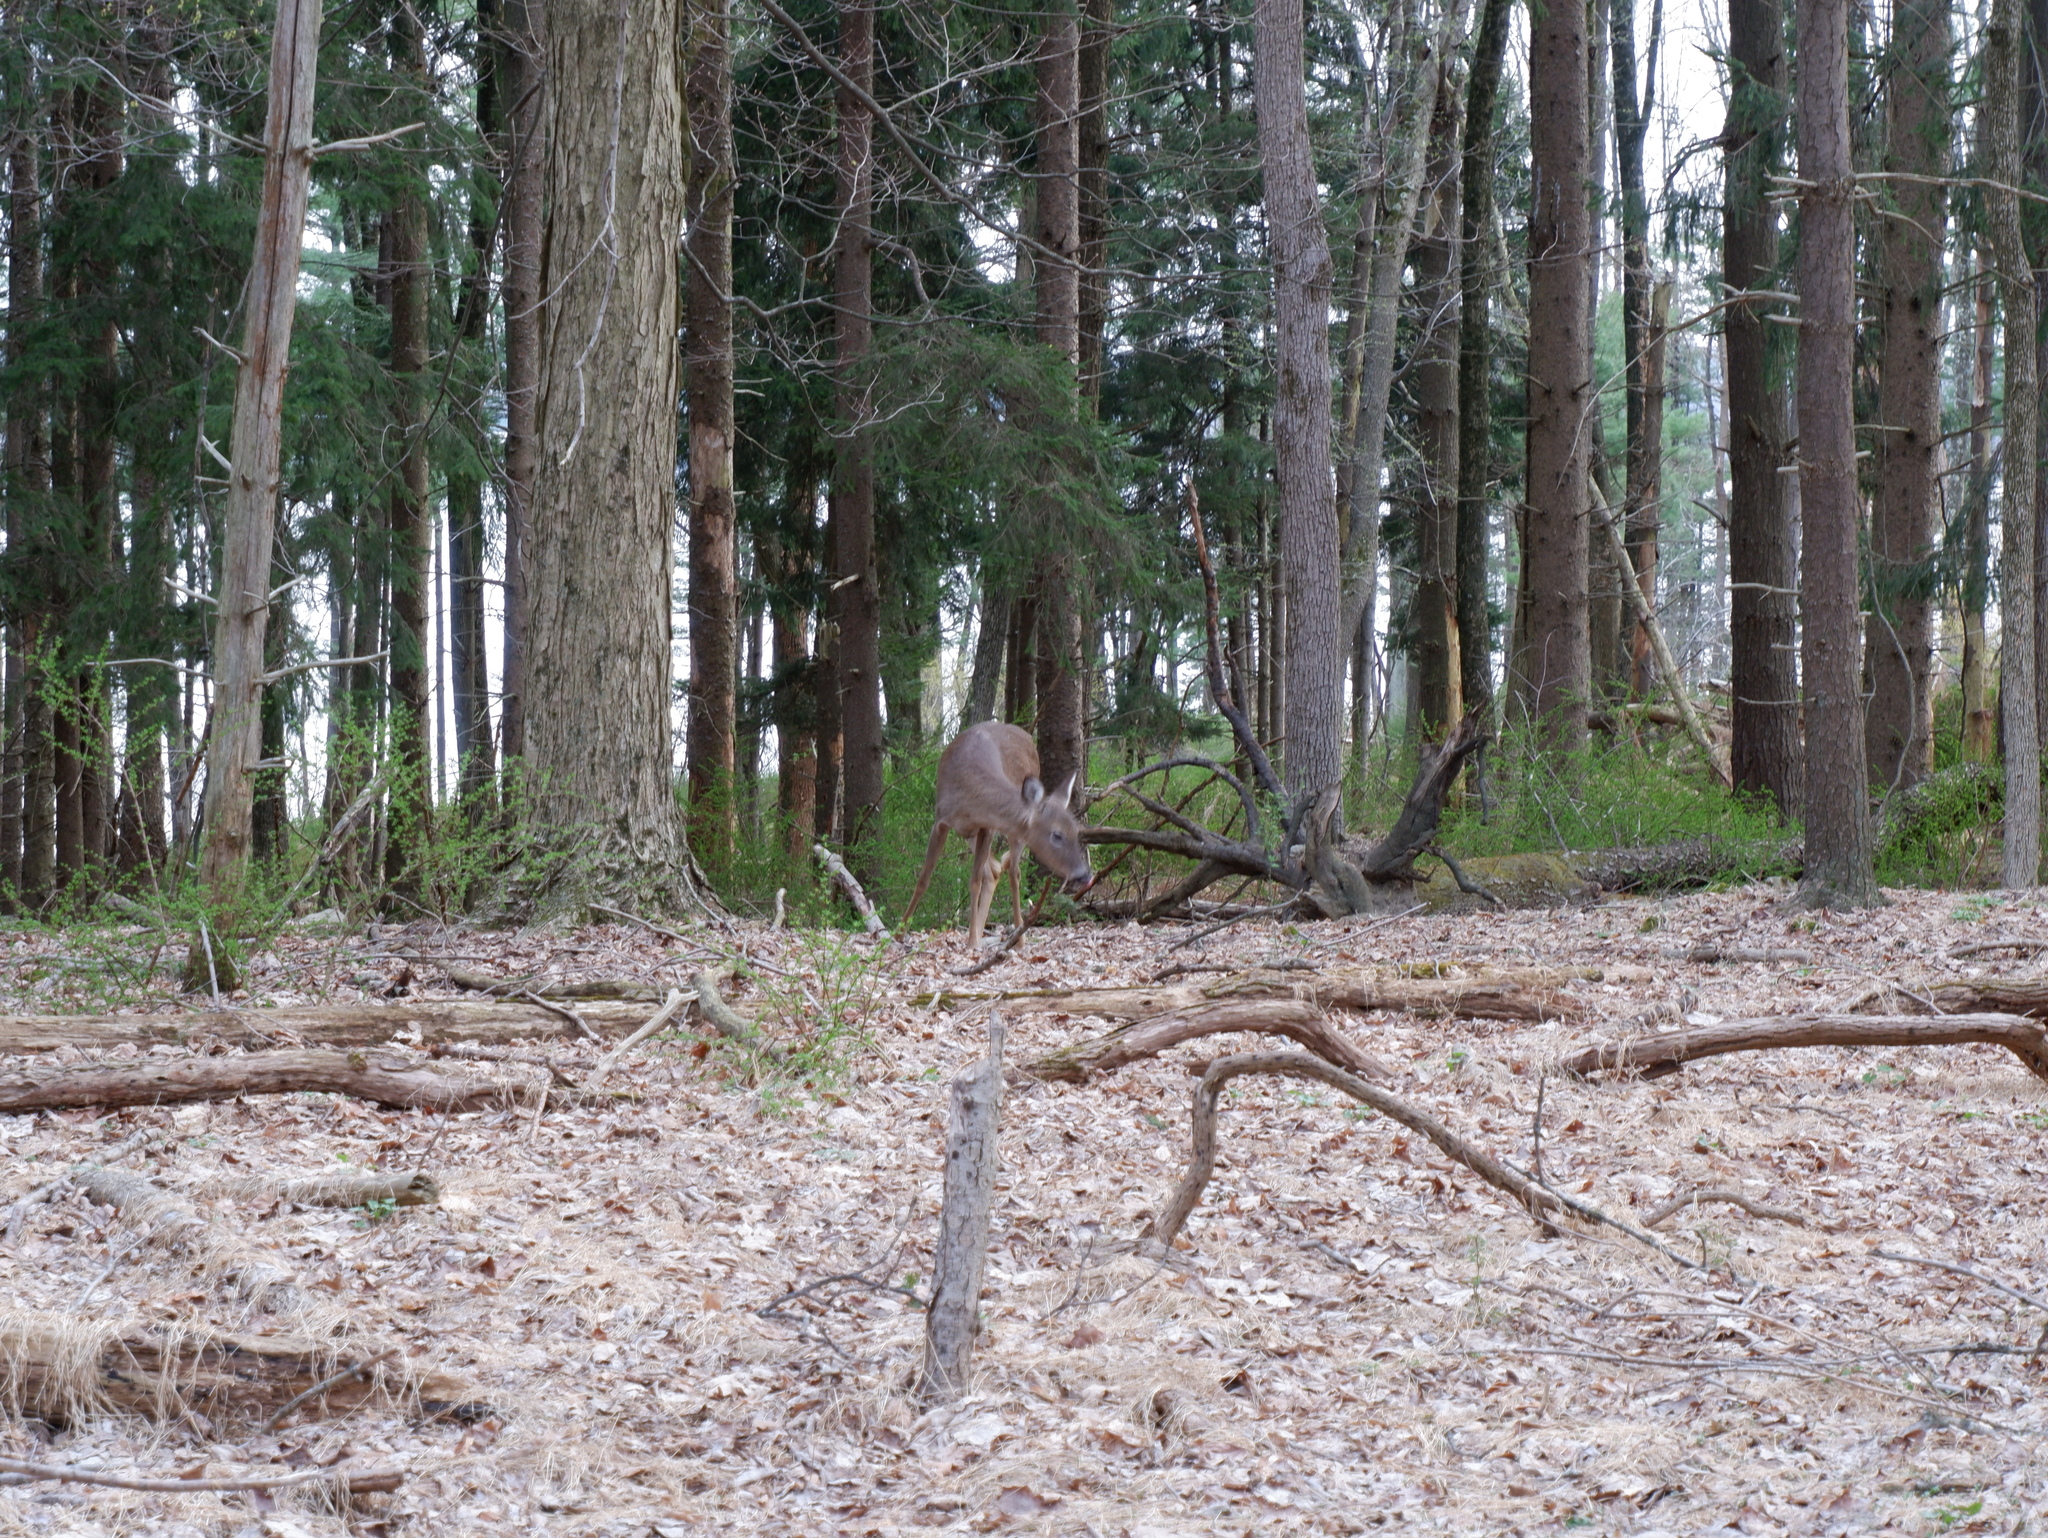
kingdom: Animalia
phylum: Chordata
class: Mammalia
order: Artiodactyla
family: Cervidae
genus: Odocoileus
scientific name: Odocoileus virginianus
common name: White-tailed deer
